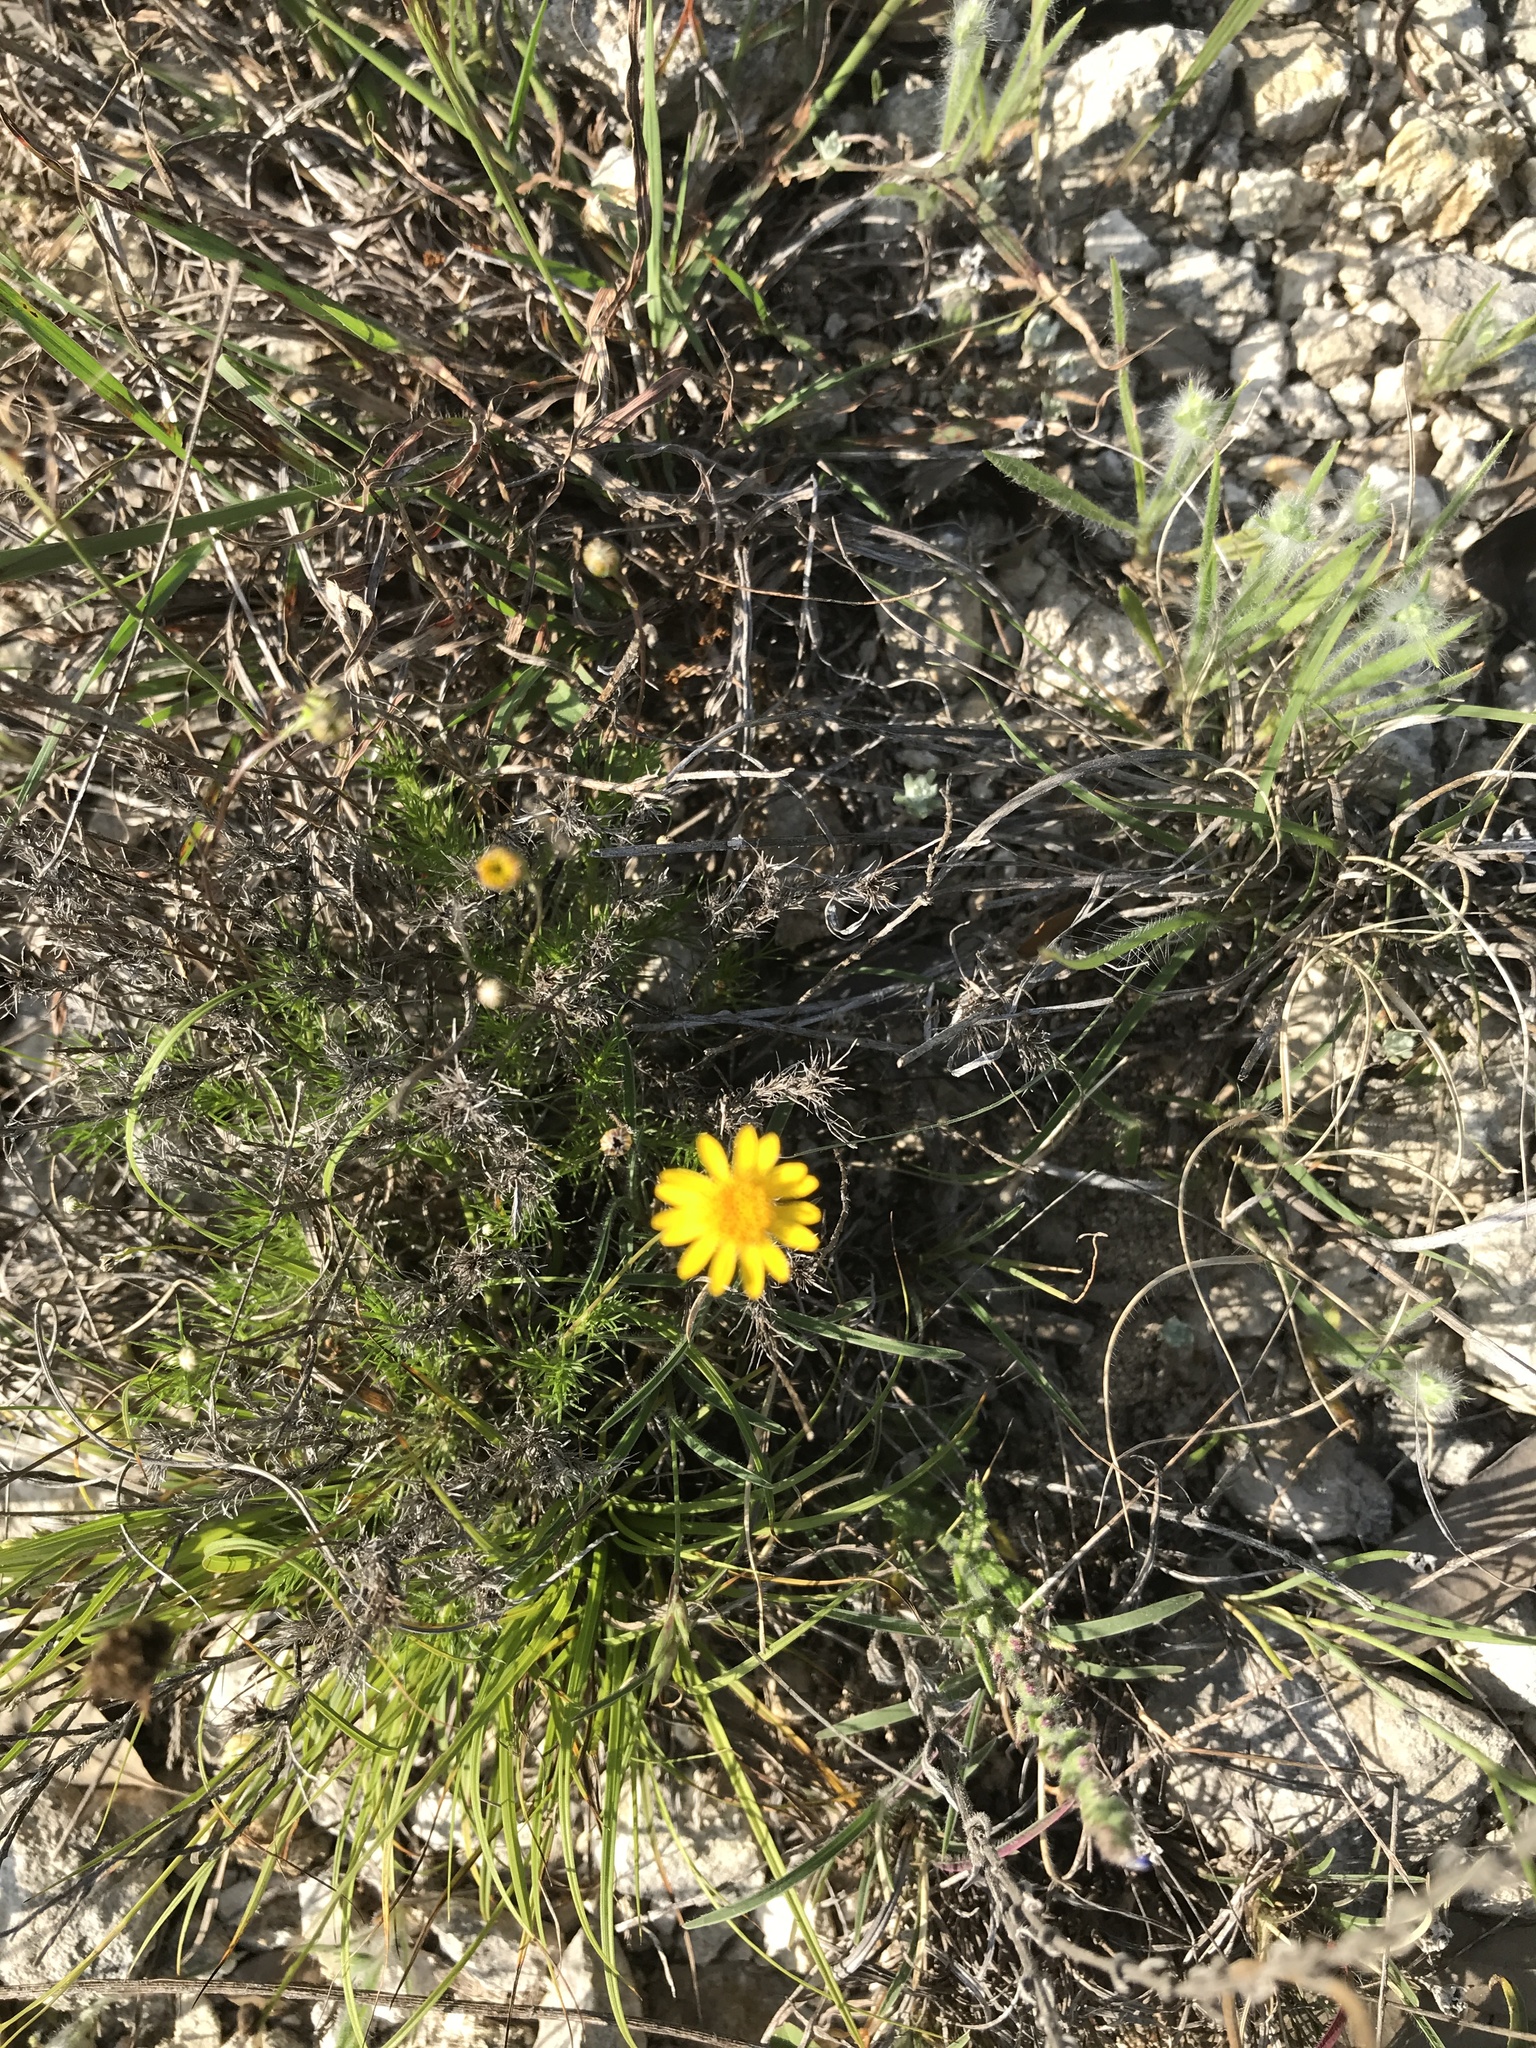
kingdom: Plantae
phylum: Tracheophyta
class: Magnoliopsida
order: Asterales
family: Asteraceae
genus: Thymophylla
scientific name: Thymophylla pentachaeta
